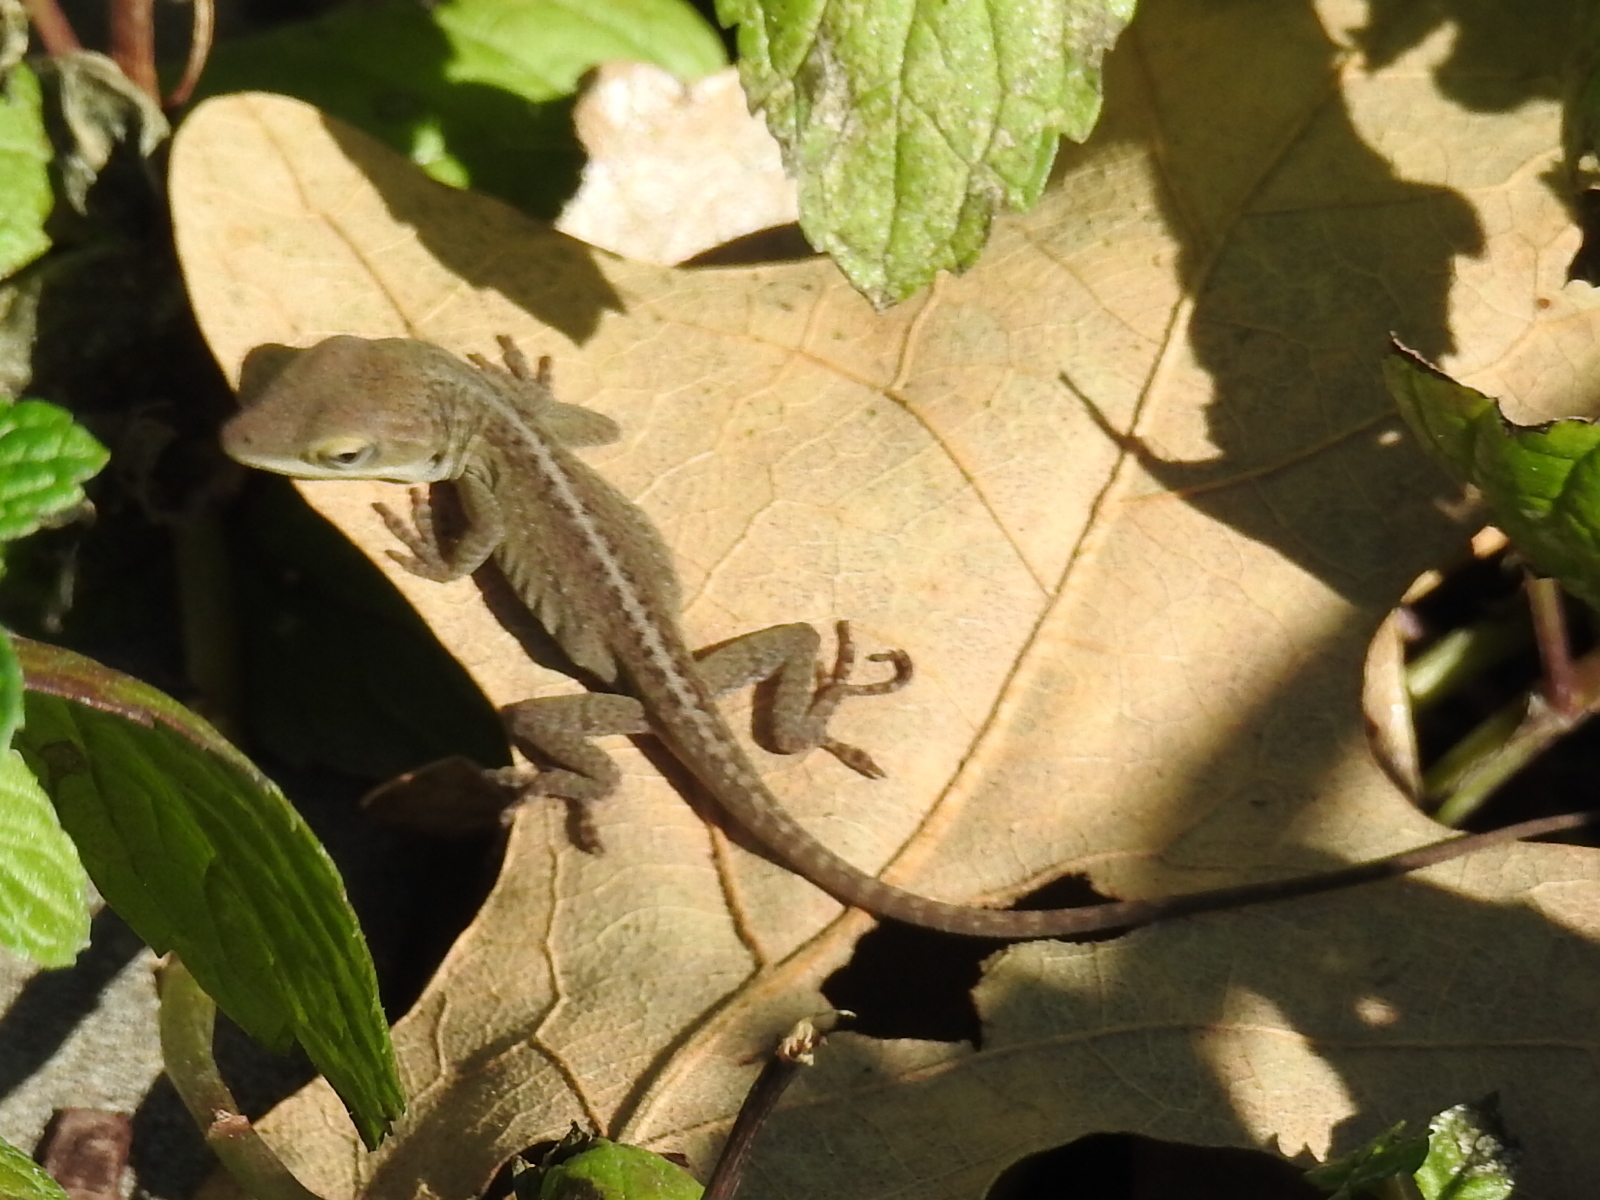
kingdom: Animalia
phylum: Chordata
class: Squamata
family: Dactyloidae
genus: Anolis
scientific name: Anolis carolinensis
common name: Green anole
